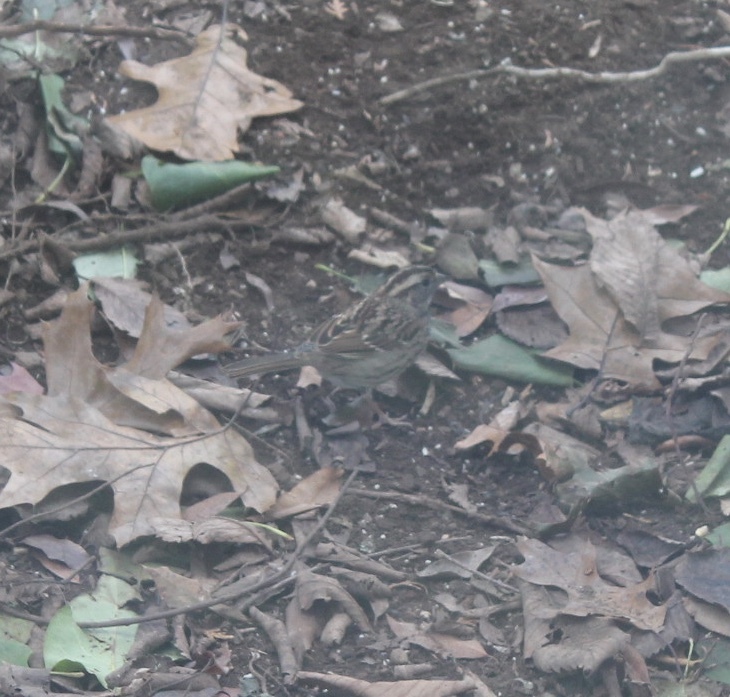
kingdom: Animalia
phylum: Chordata
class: Aves
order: Passeriformes
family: Passerellidae
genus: Zonotrichia
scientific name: Zonotrichia albicollis
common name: White-throated sparrow
